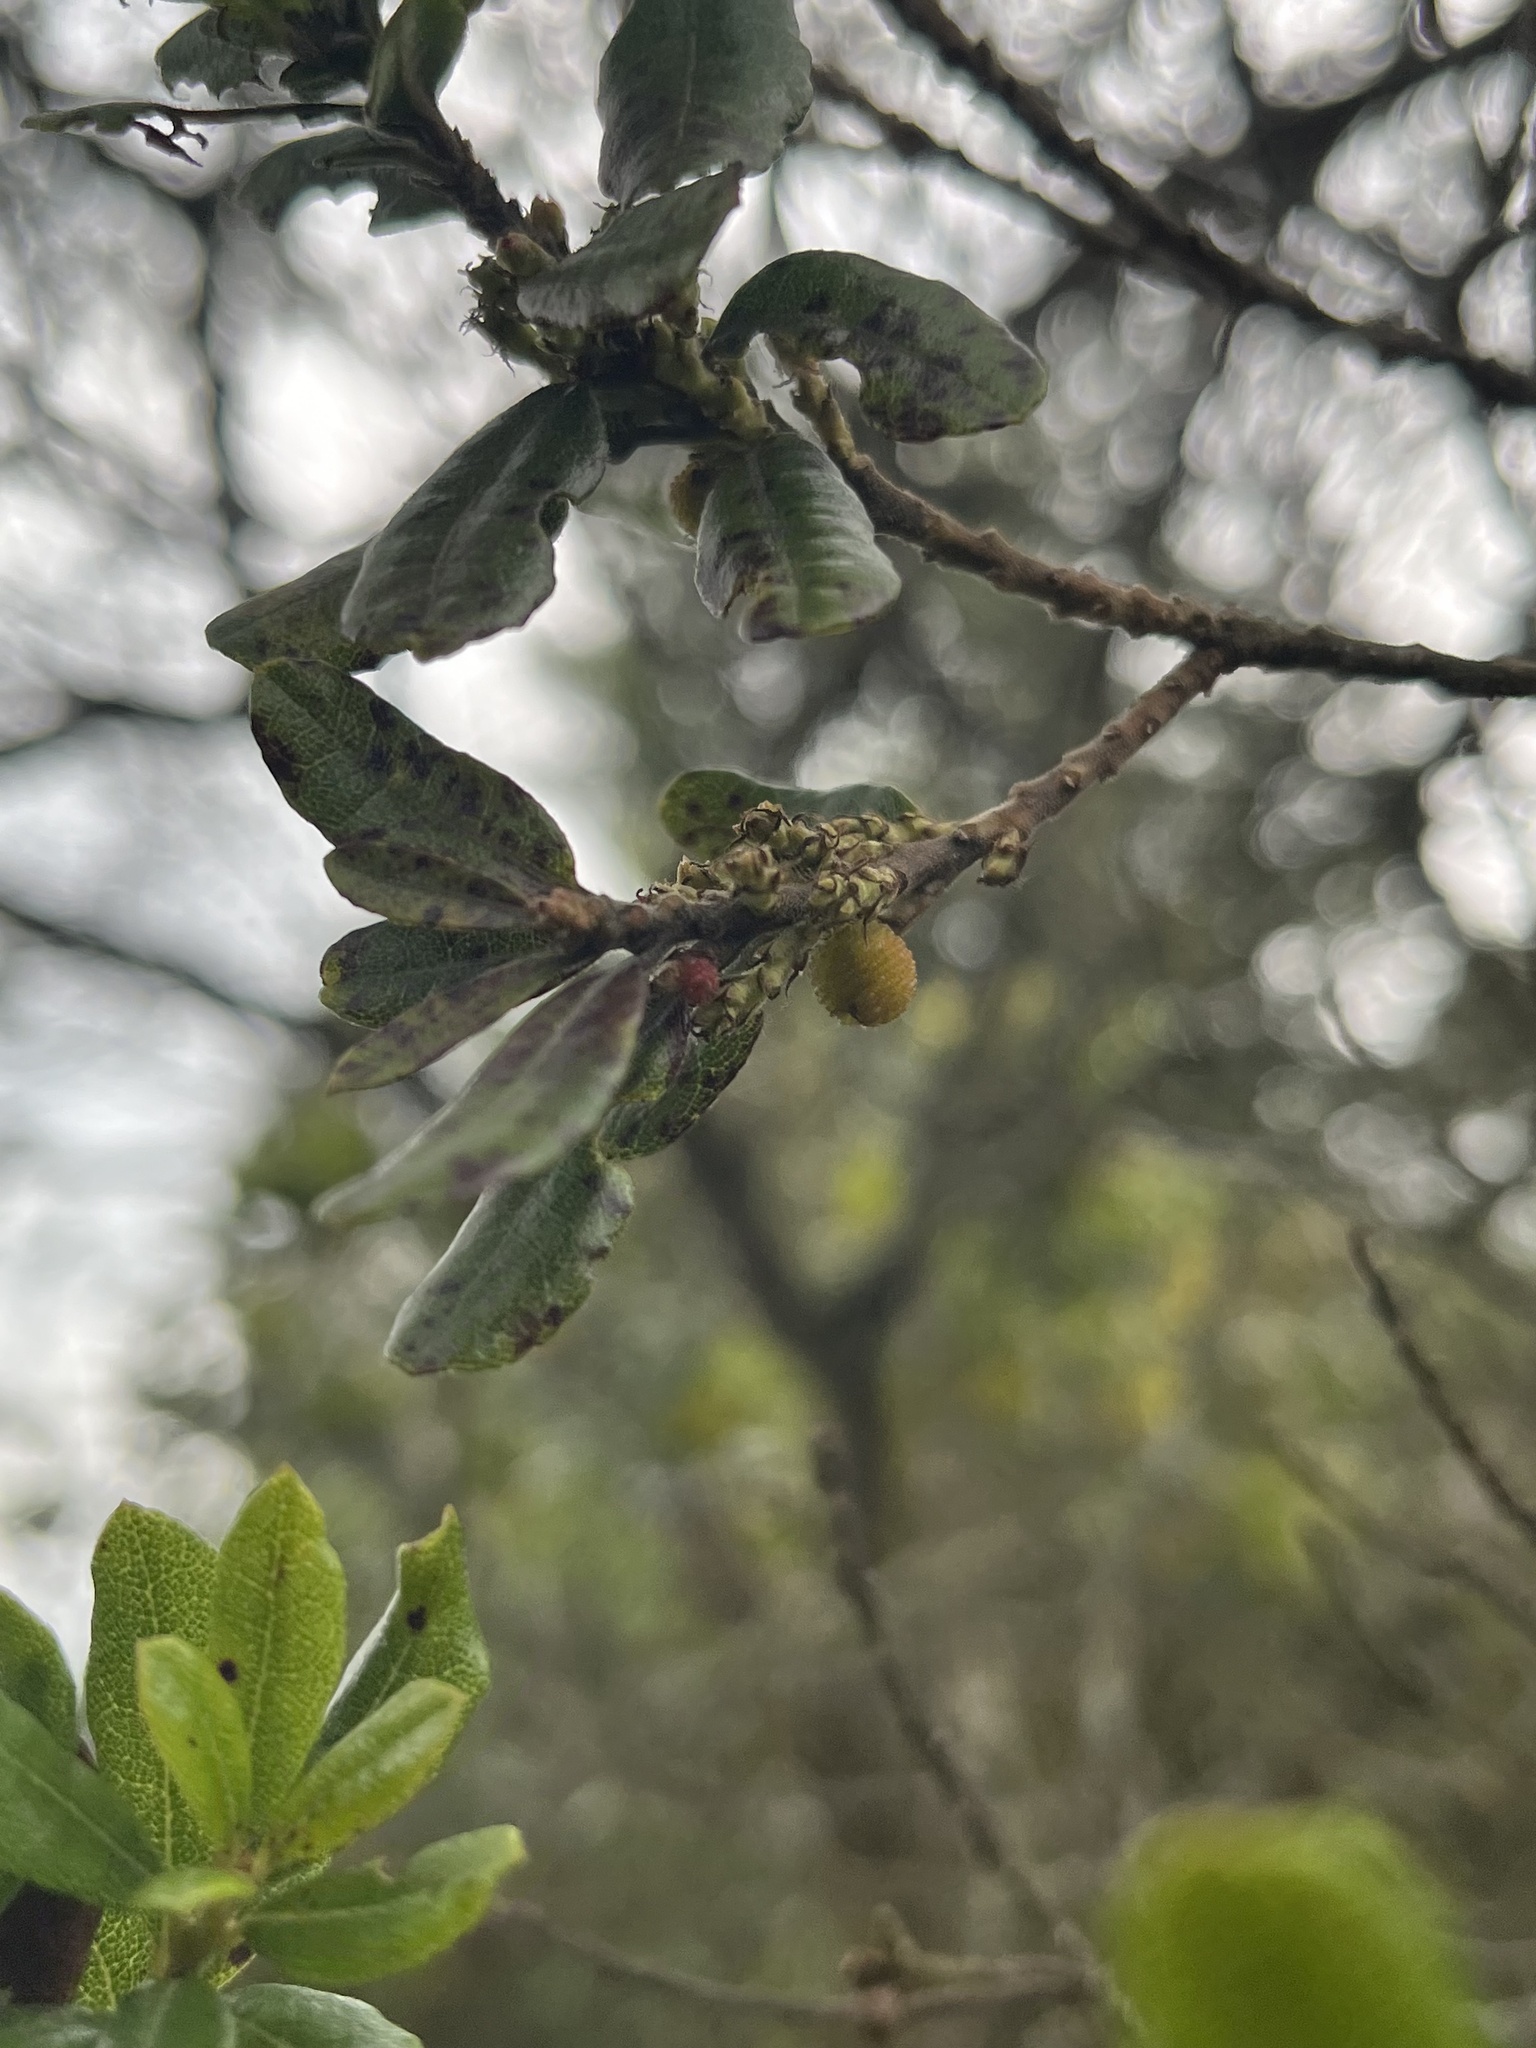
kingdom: Plantae
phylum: Tracheophyta
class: Magnoliopsida
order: Fagales
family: Myricaceae
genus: Morella
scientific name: Morella parvifolia
